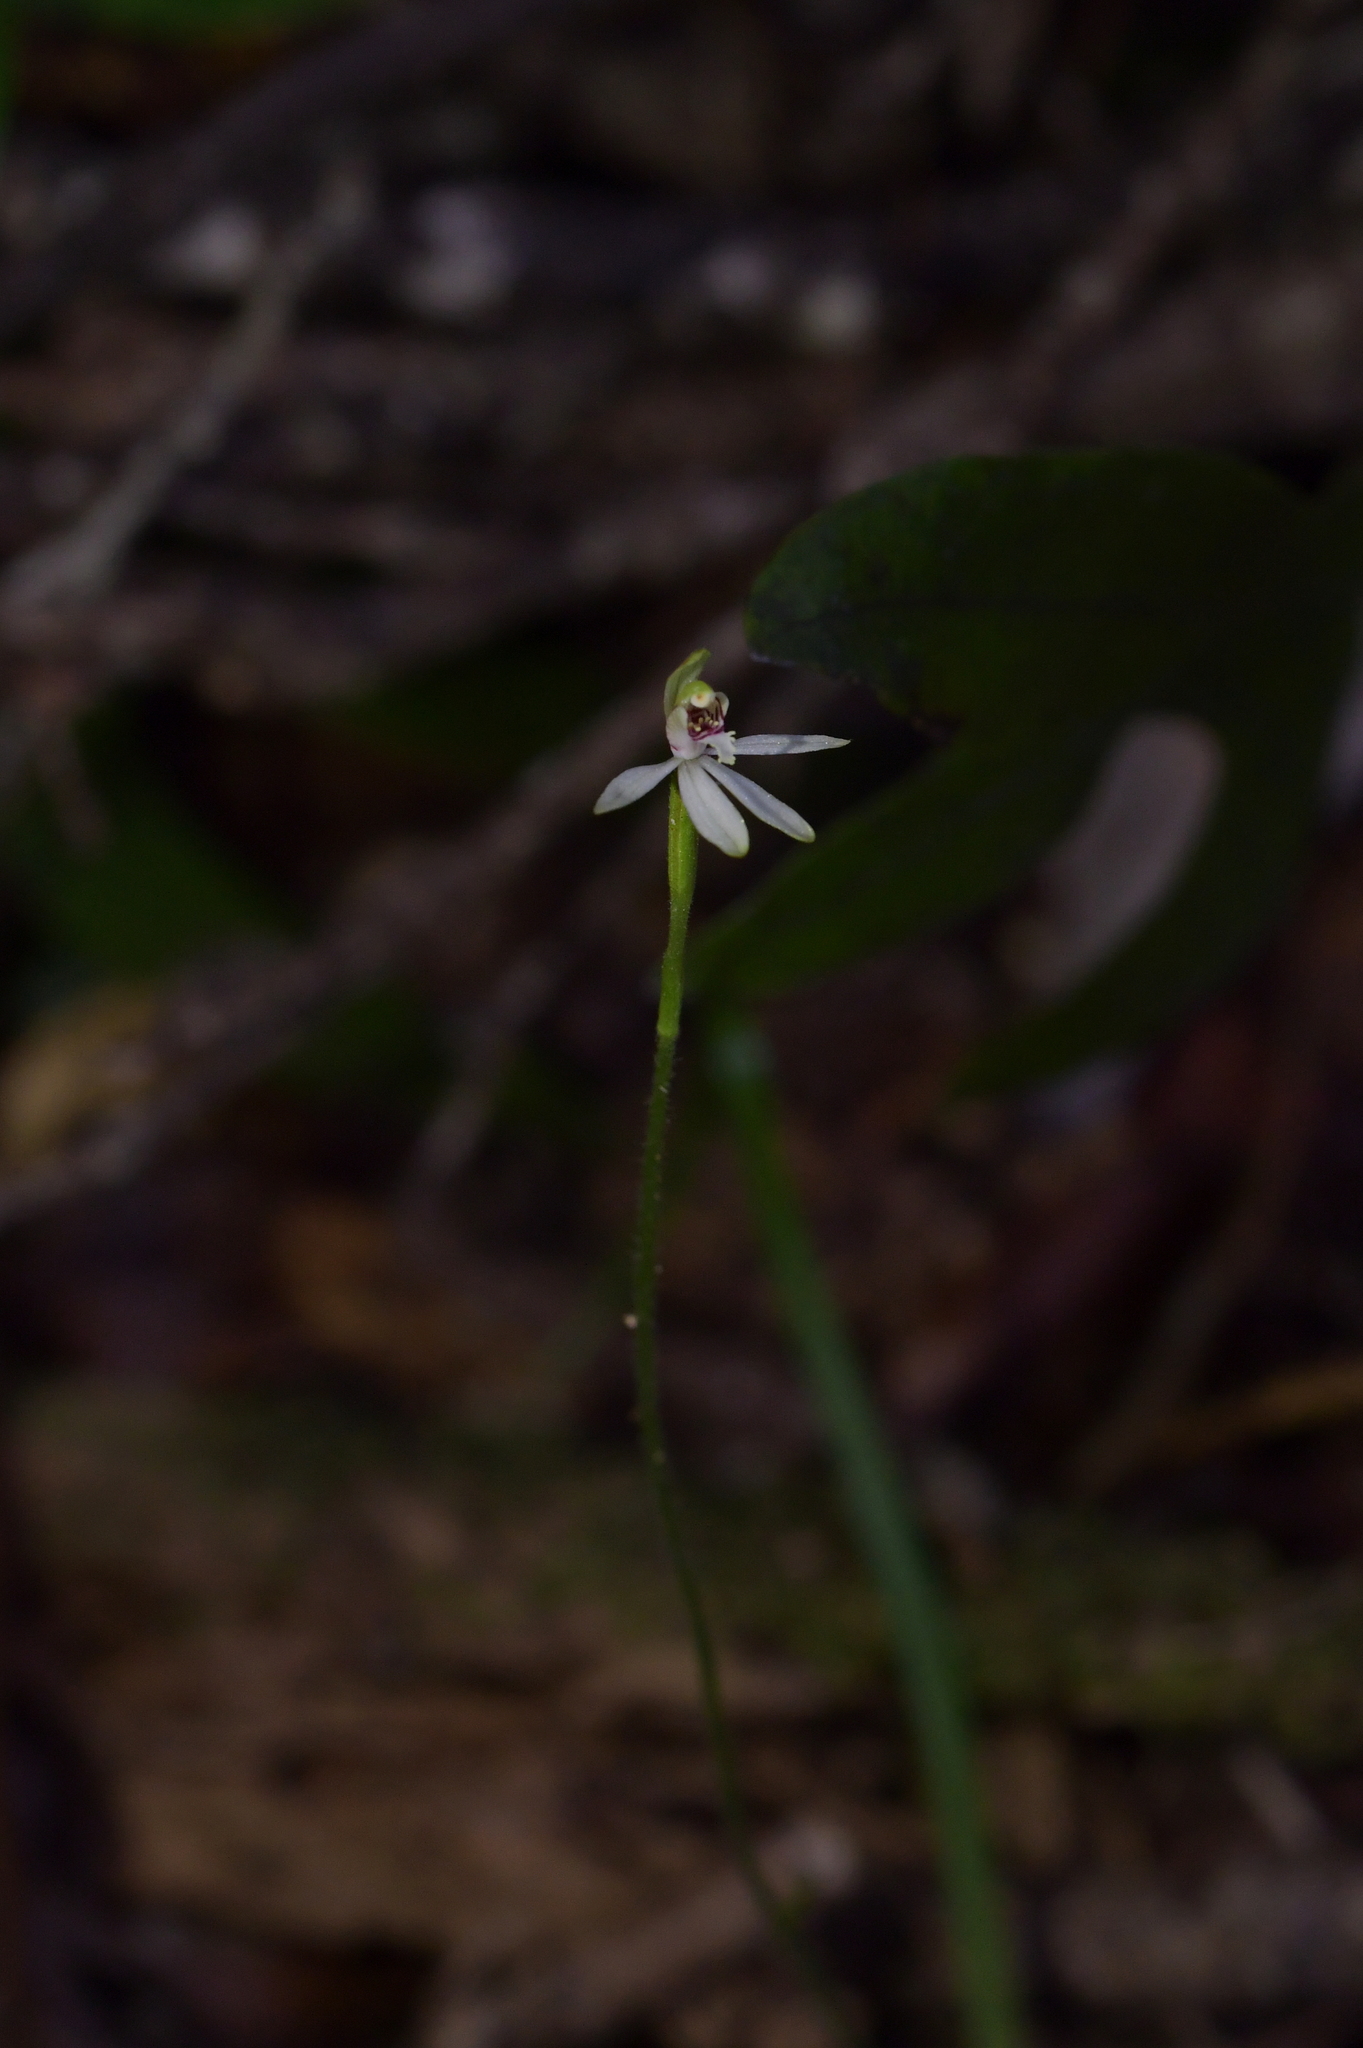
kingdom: Plantae
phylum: Tracheophyta
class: Liliopsida
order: Asparagales
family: Orchidaceae
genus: Caladenia
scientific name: Caladenia chlorostyla
